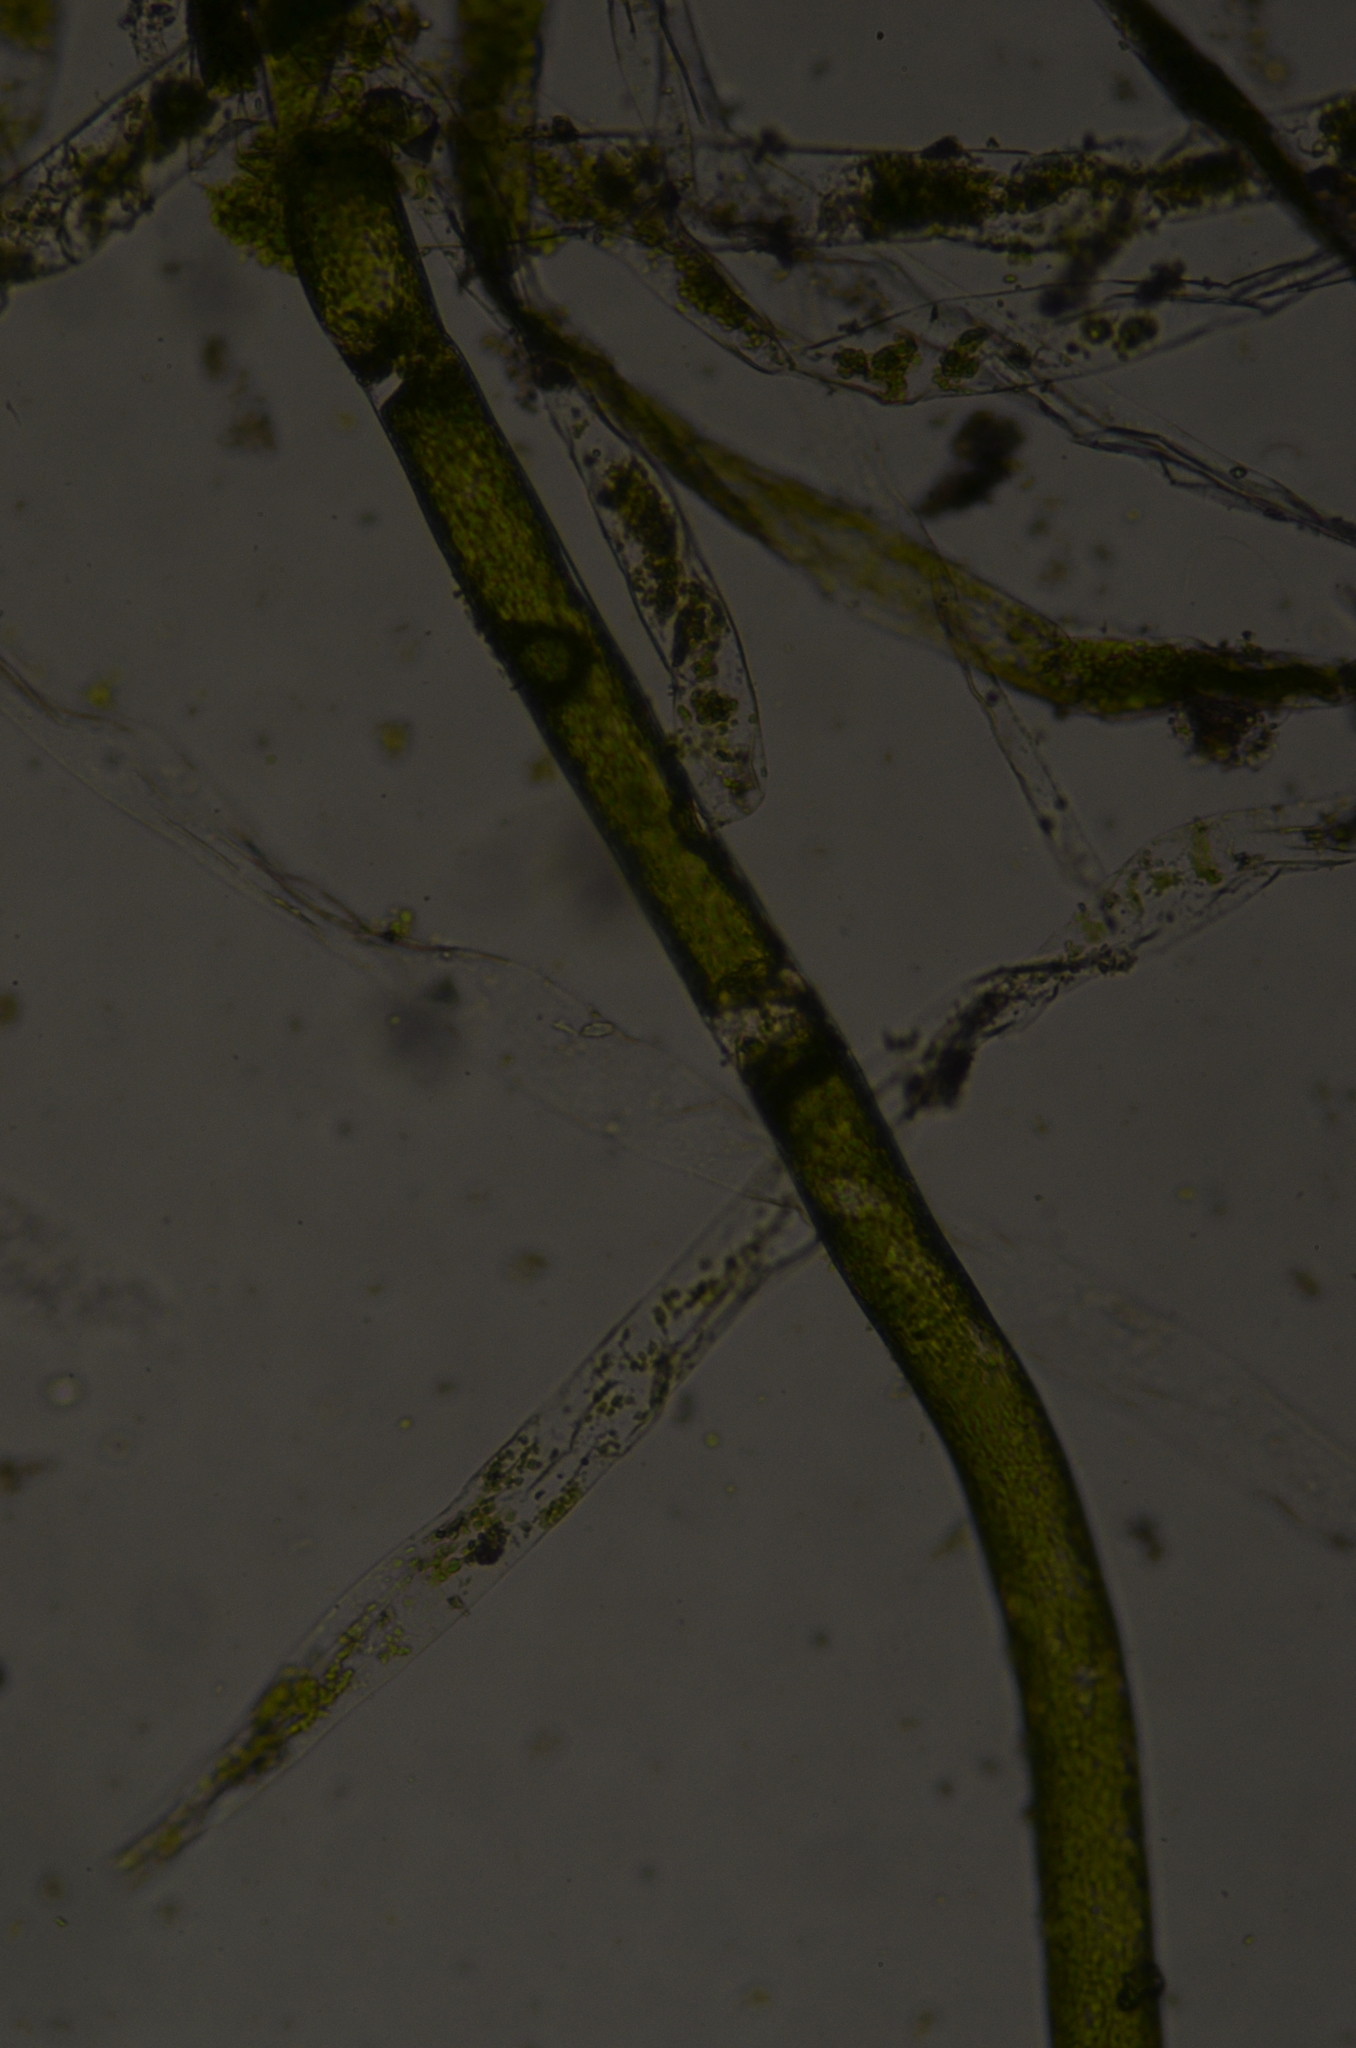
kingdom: Chromista
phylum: Ochrophyta
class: Xanthophyceae
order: Vaucheriales
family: Vaucheriaceae
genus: Vaucheria
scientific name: Vaucheria
